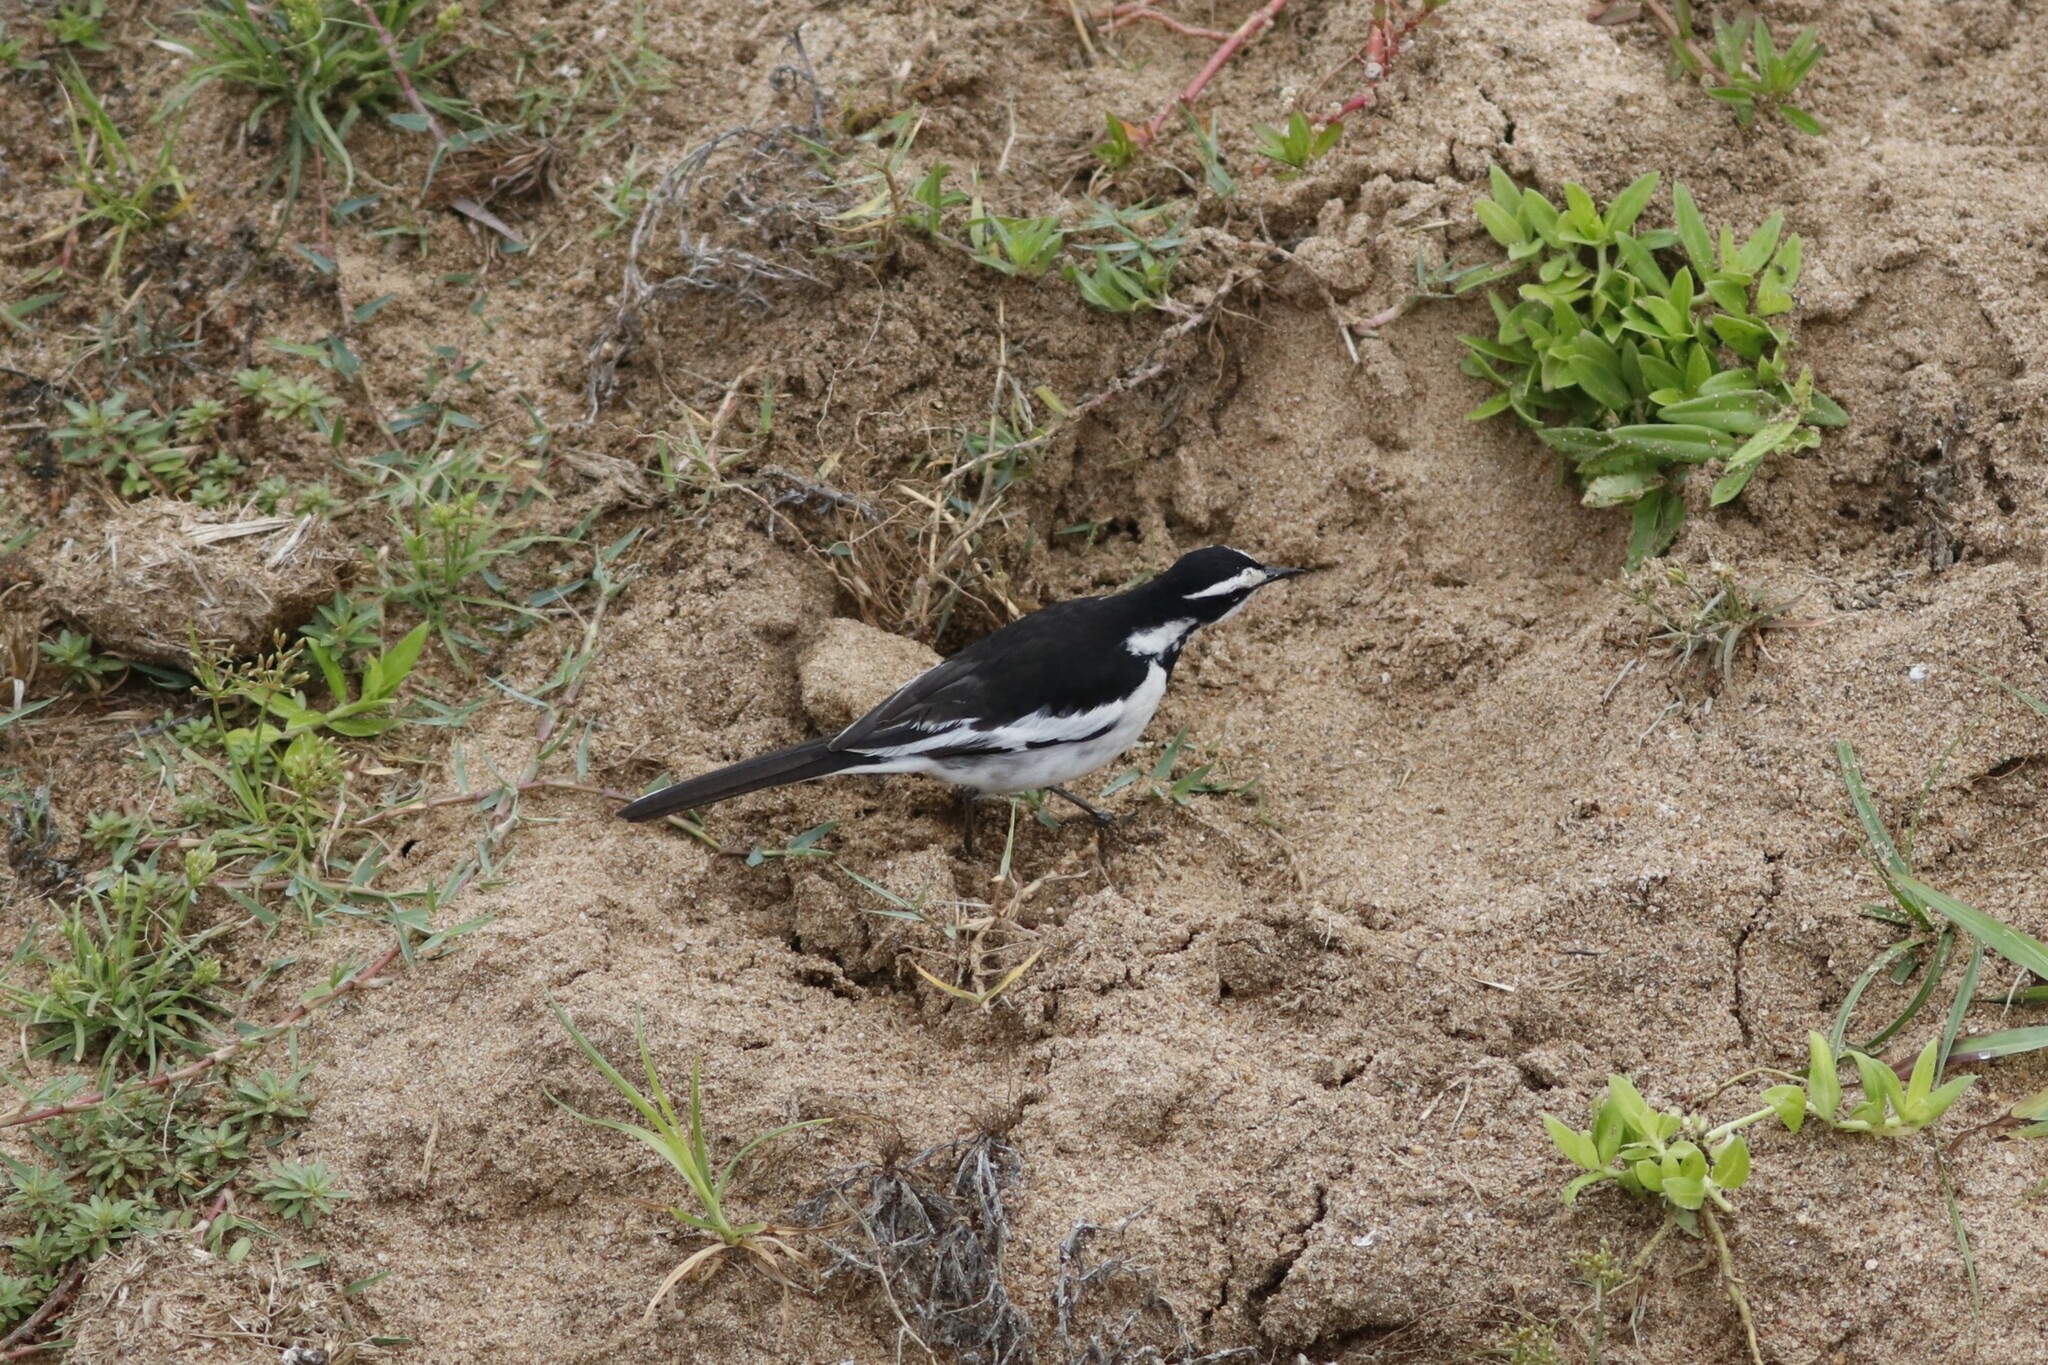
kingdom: Animalia
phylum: Chordata
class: Aves
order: Passeriformes
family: Motacillidae
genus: Motacilla
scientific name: Motacilla aguimp
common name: African pied wagtail
